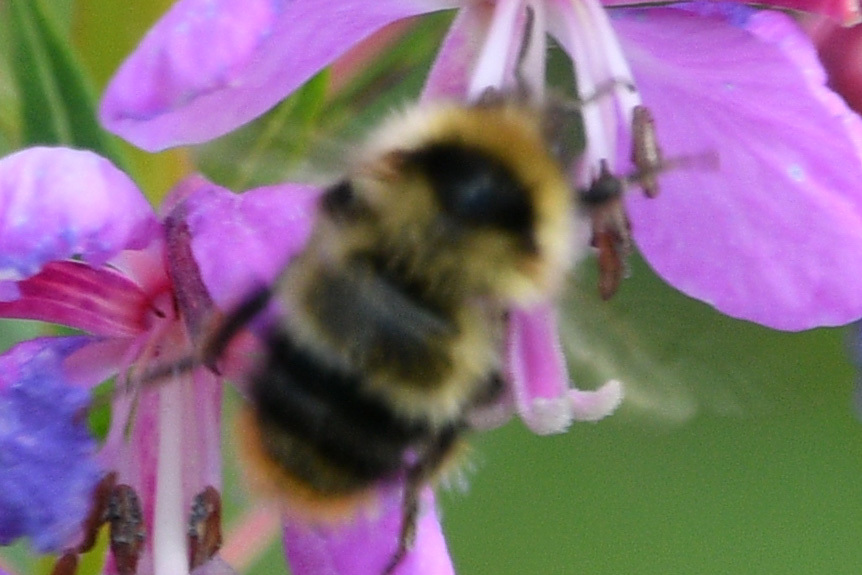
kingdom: Animalia
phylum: Arthropoda
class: Insecta
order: Hymenoptera
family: Apidae
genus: Bombus
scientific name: Bombus frigidus
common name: Frigid bumble bee
